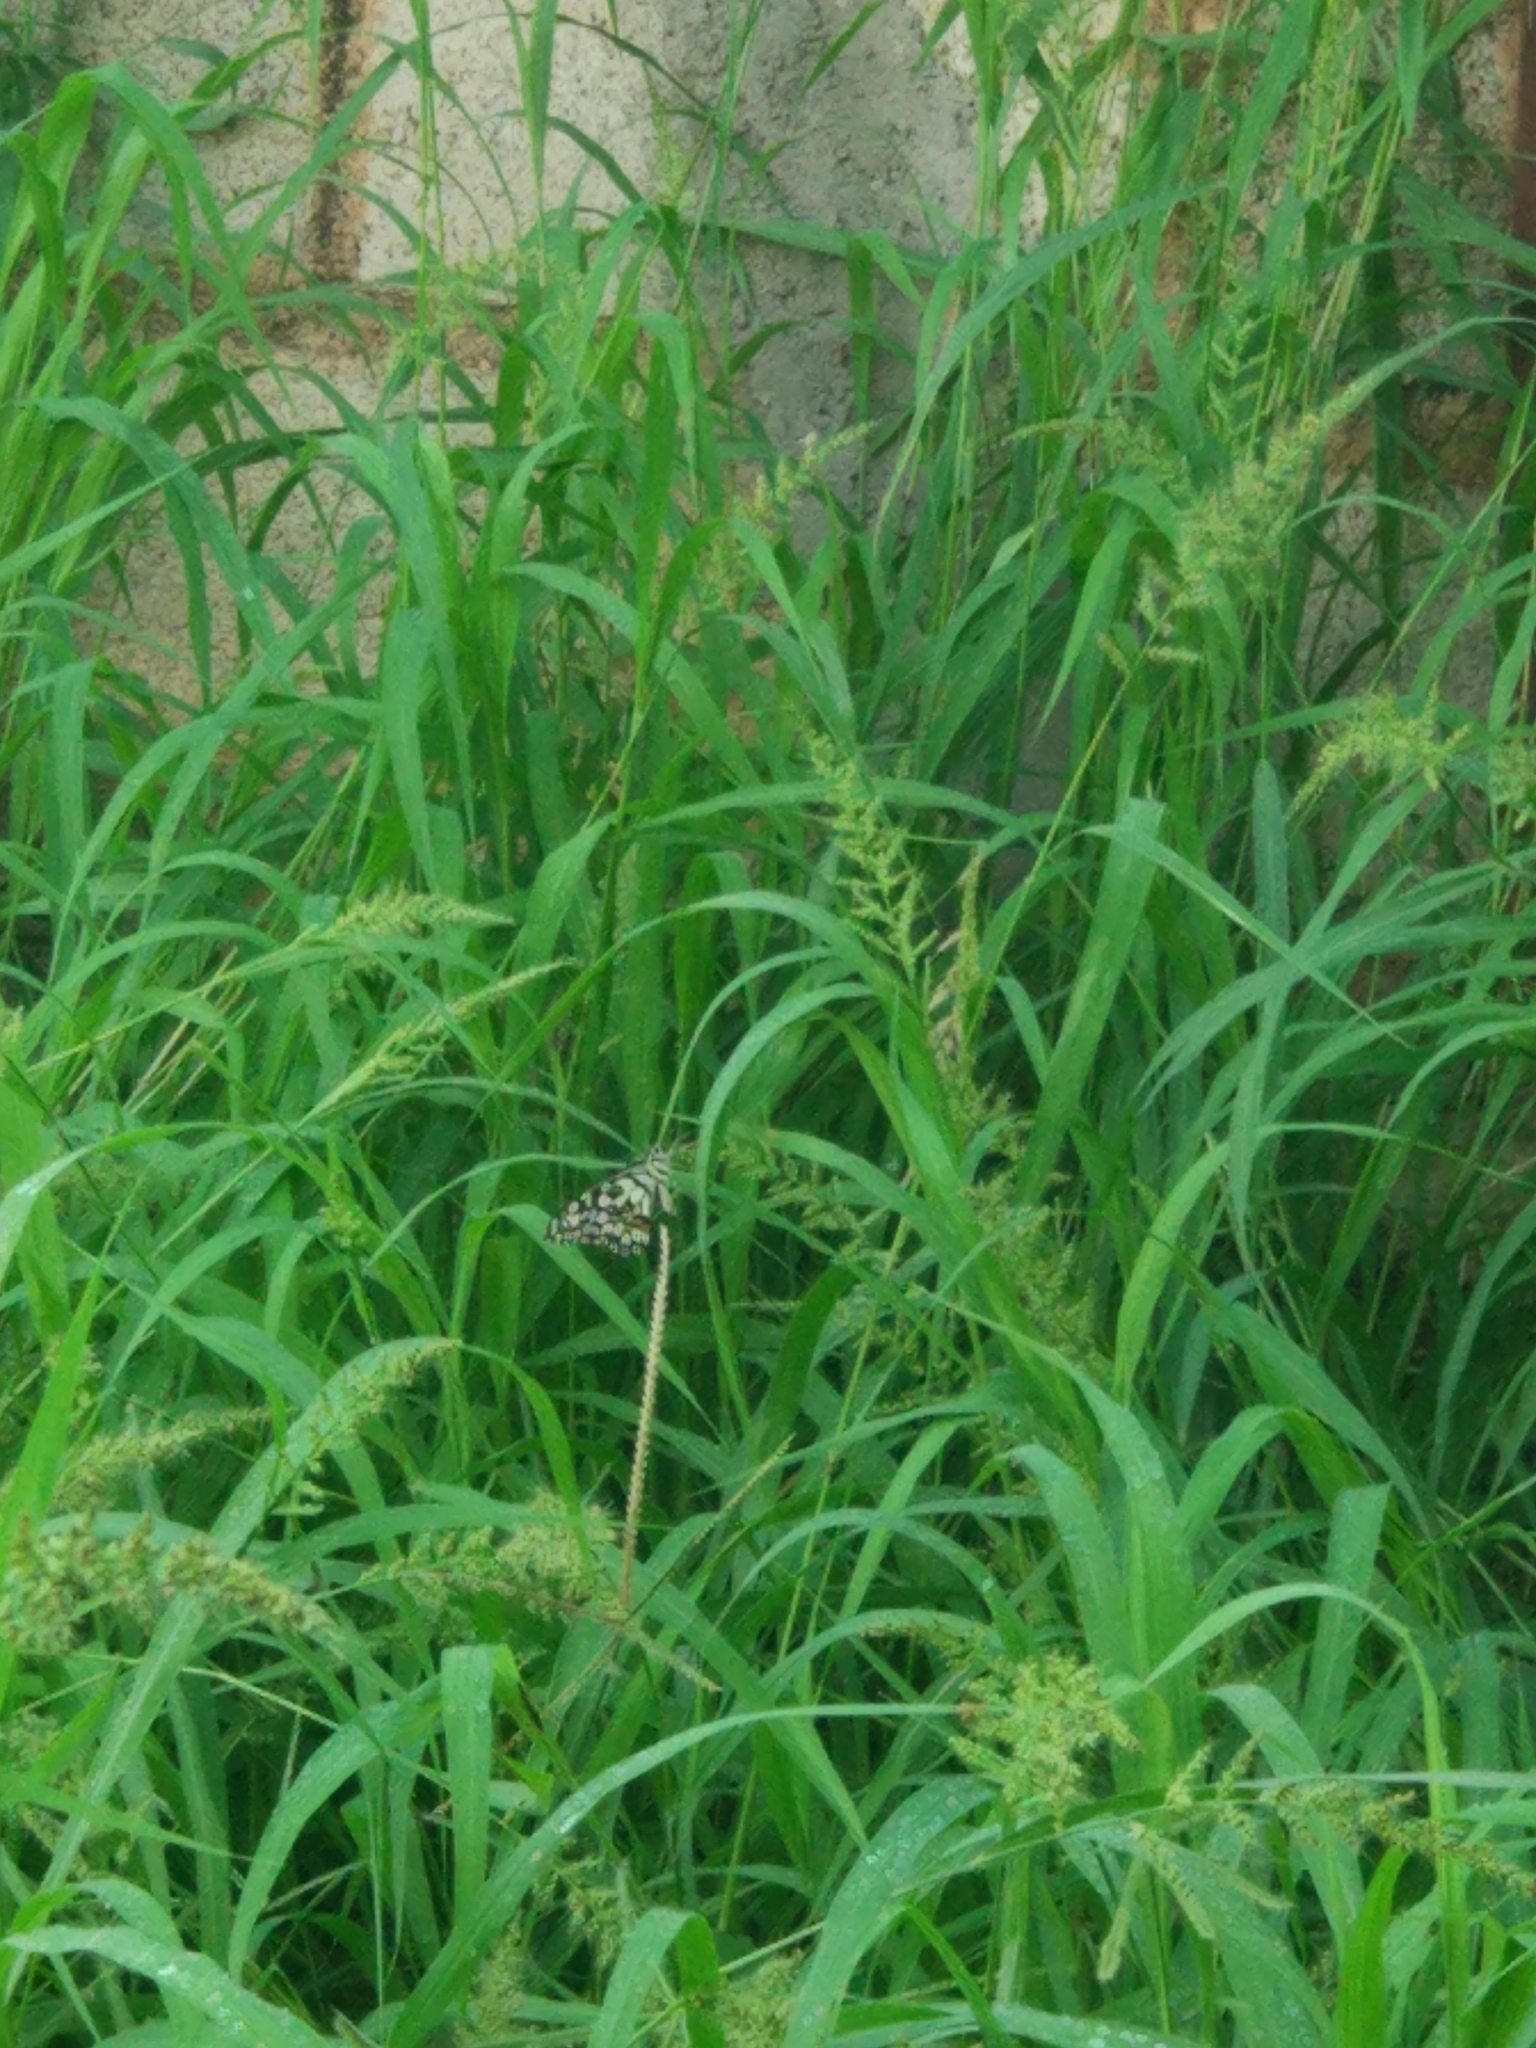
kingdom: Animalia
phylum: Arthropoda
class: Insecta
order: Lepidoptera
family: Papilionidae
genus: Papilio
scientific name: Papilio demoleus
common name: Lime butterfly
